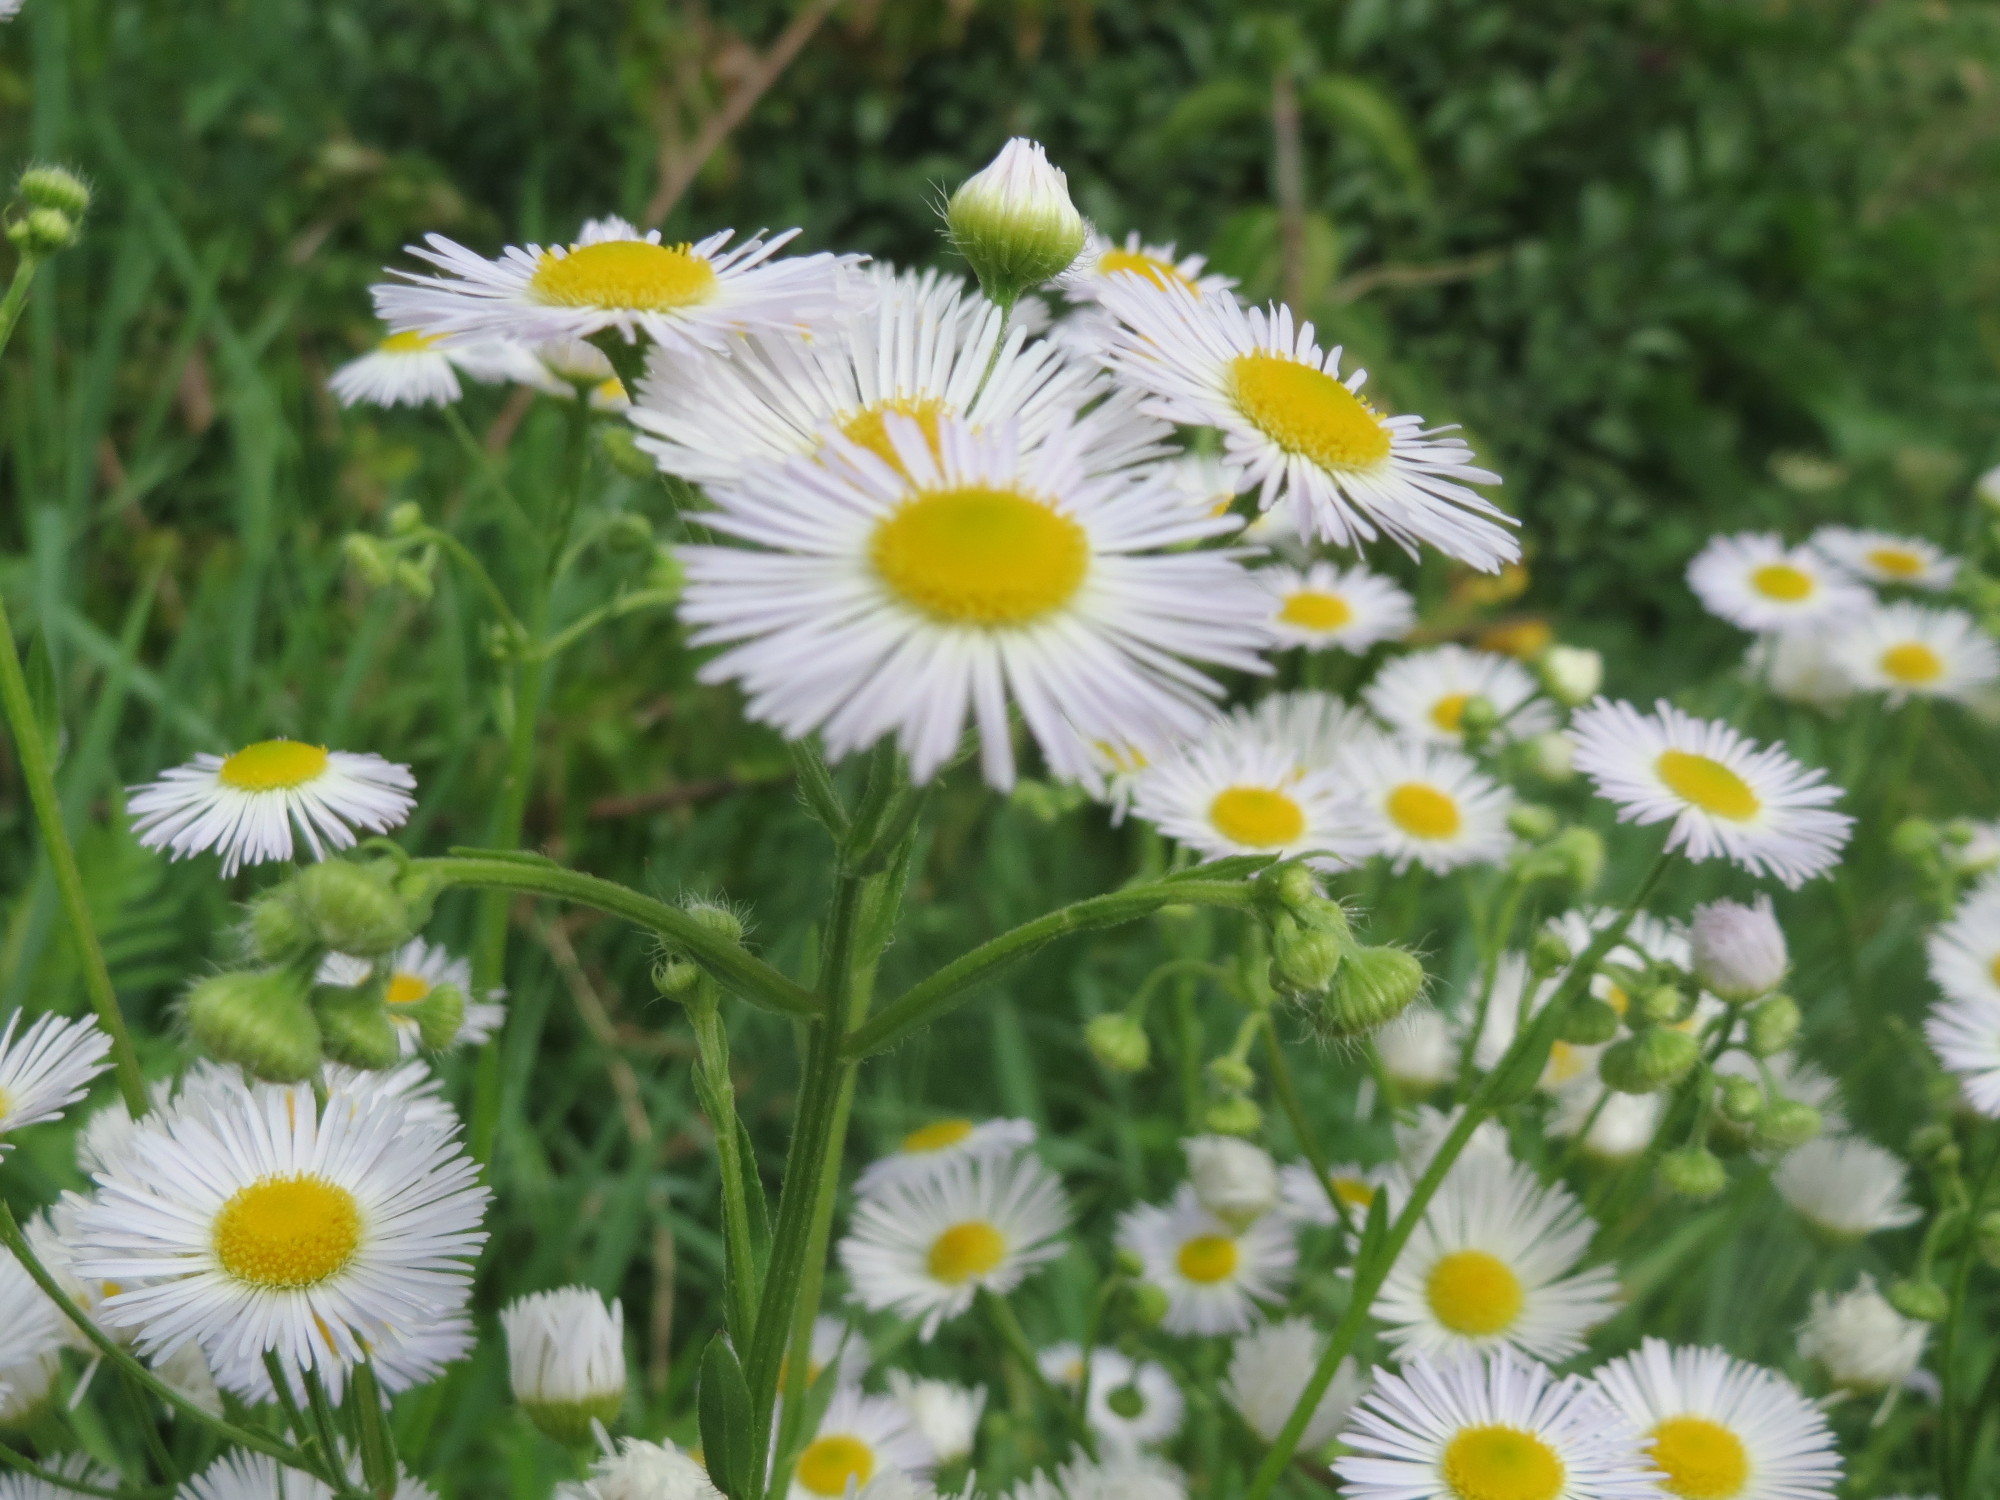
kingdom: Plantae
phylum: Tracheophyta
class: Magnoliopsida
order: Asterales
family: Asteraceae
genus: Erigeron
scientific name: Erigeron annuus
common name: Tall fleabane
